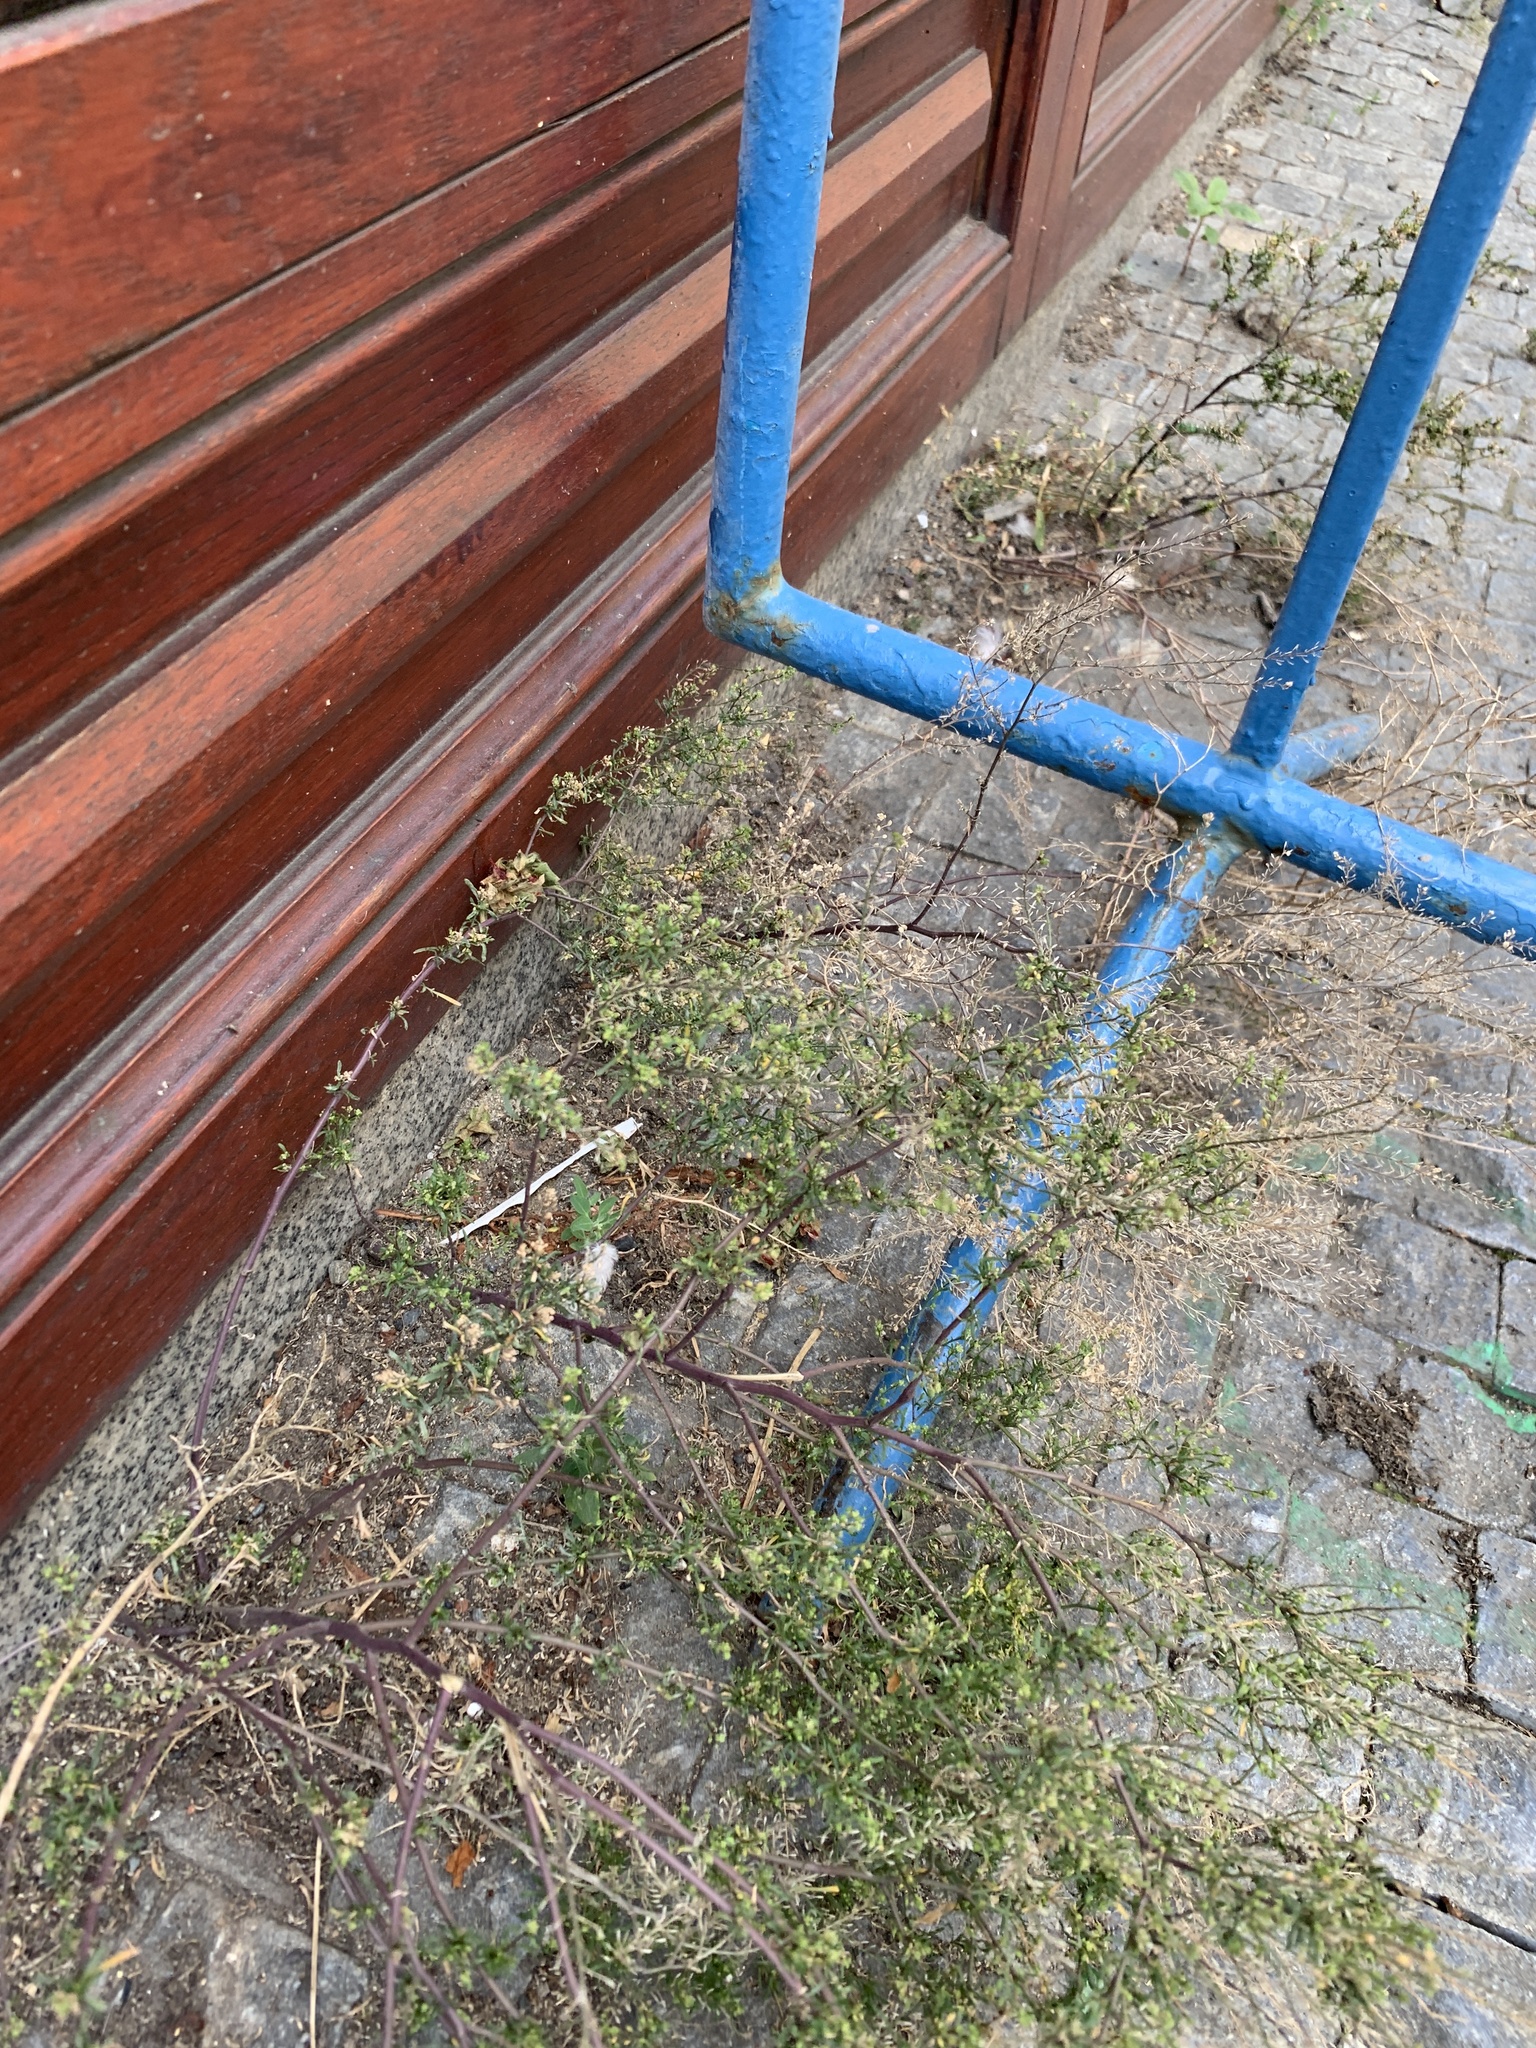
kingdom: Plantae
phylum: Tracheophyta
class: Magnoliopsida
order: Brassicales
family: Brassicaceae
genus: Lepidium
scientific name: Lepidium ruderale
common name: Narrow-leaved pepperwort
